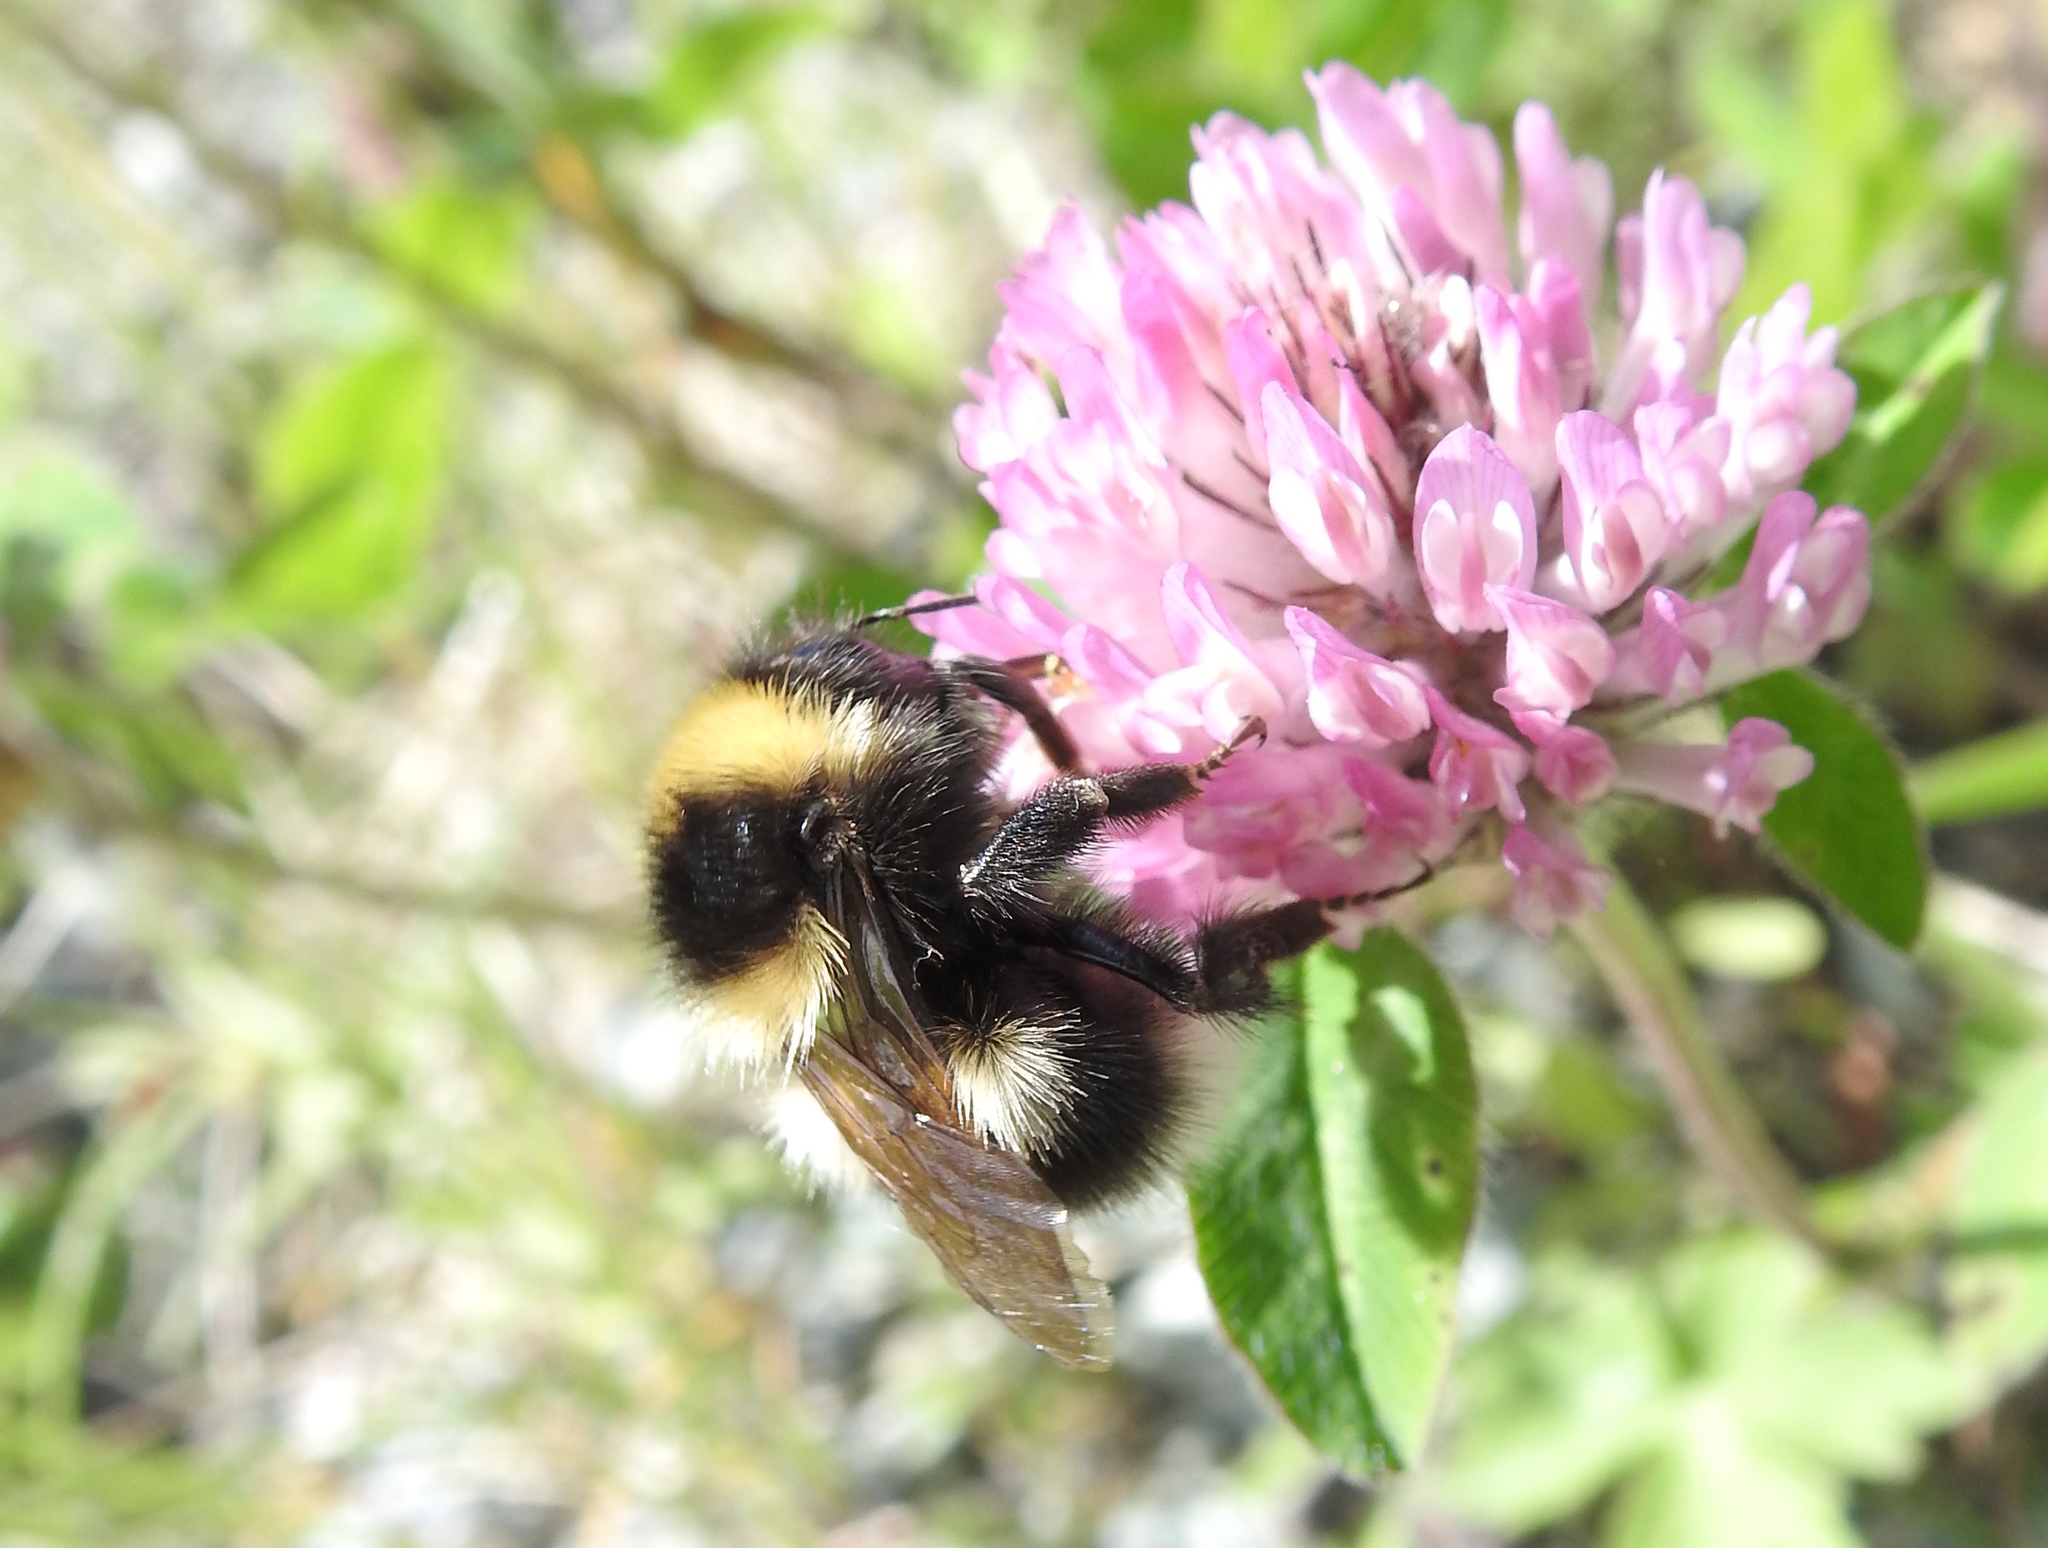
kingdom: Animalia
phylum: Arthropoda
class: Insecta
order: Hymenoptera
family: Apidae
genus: Bombus
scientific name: Bombus hortorum
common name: Garden bumblebee
